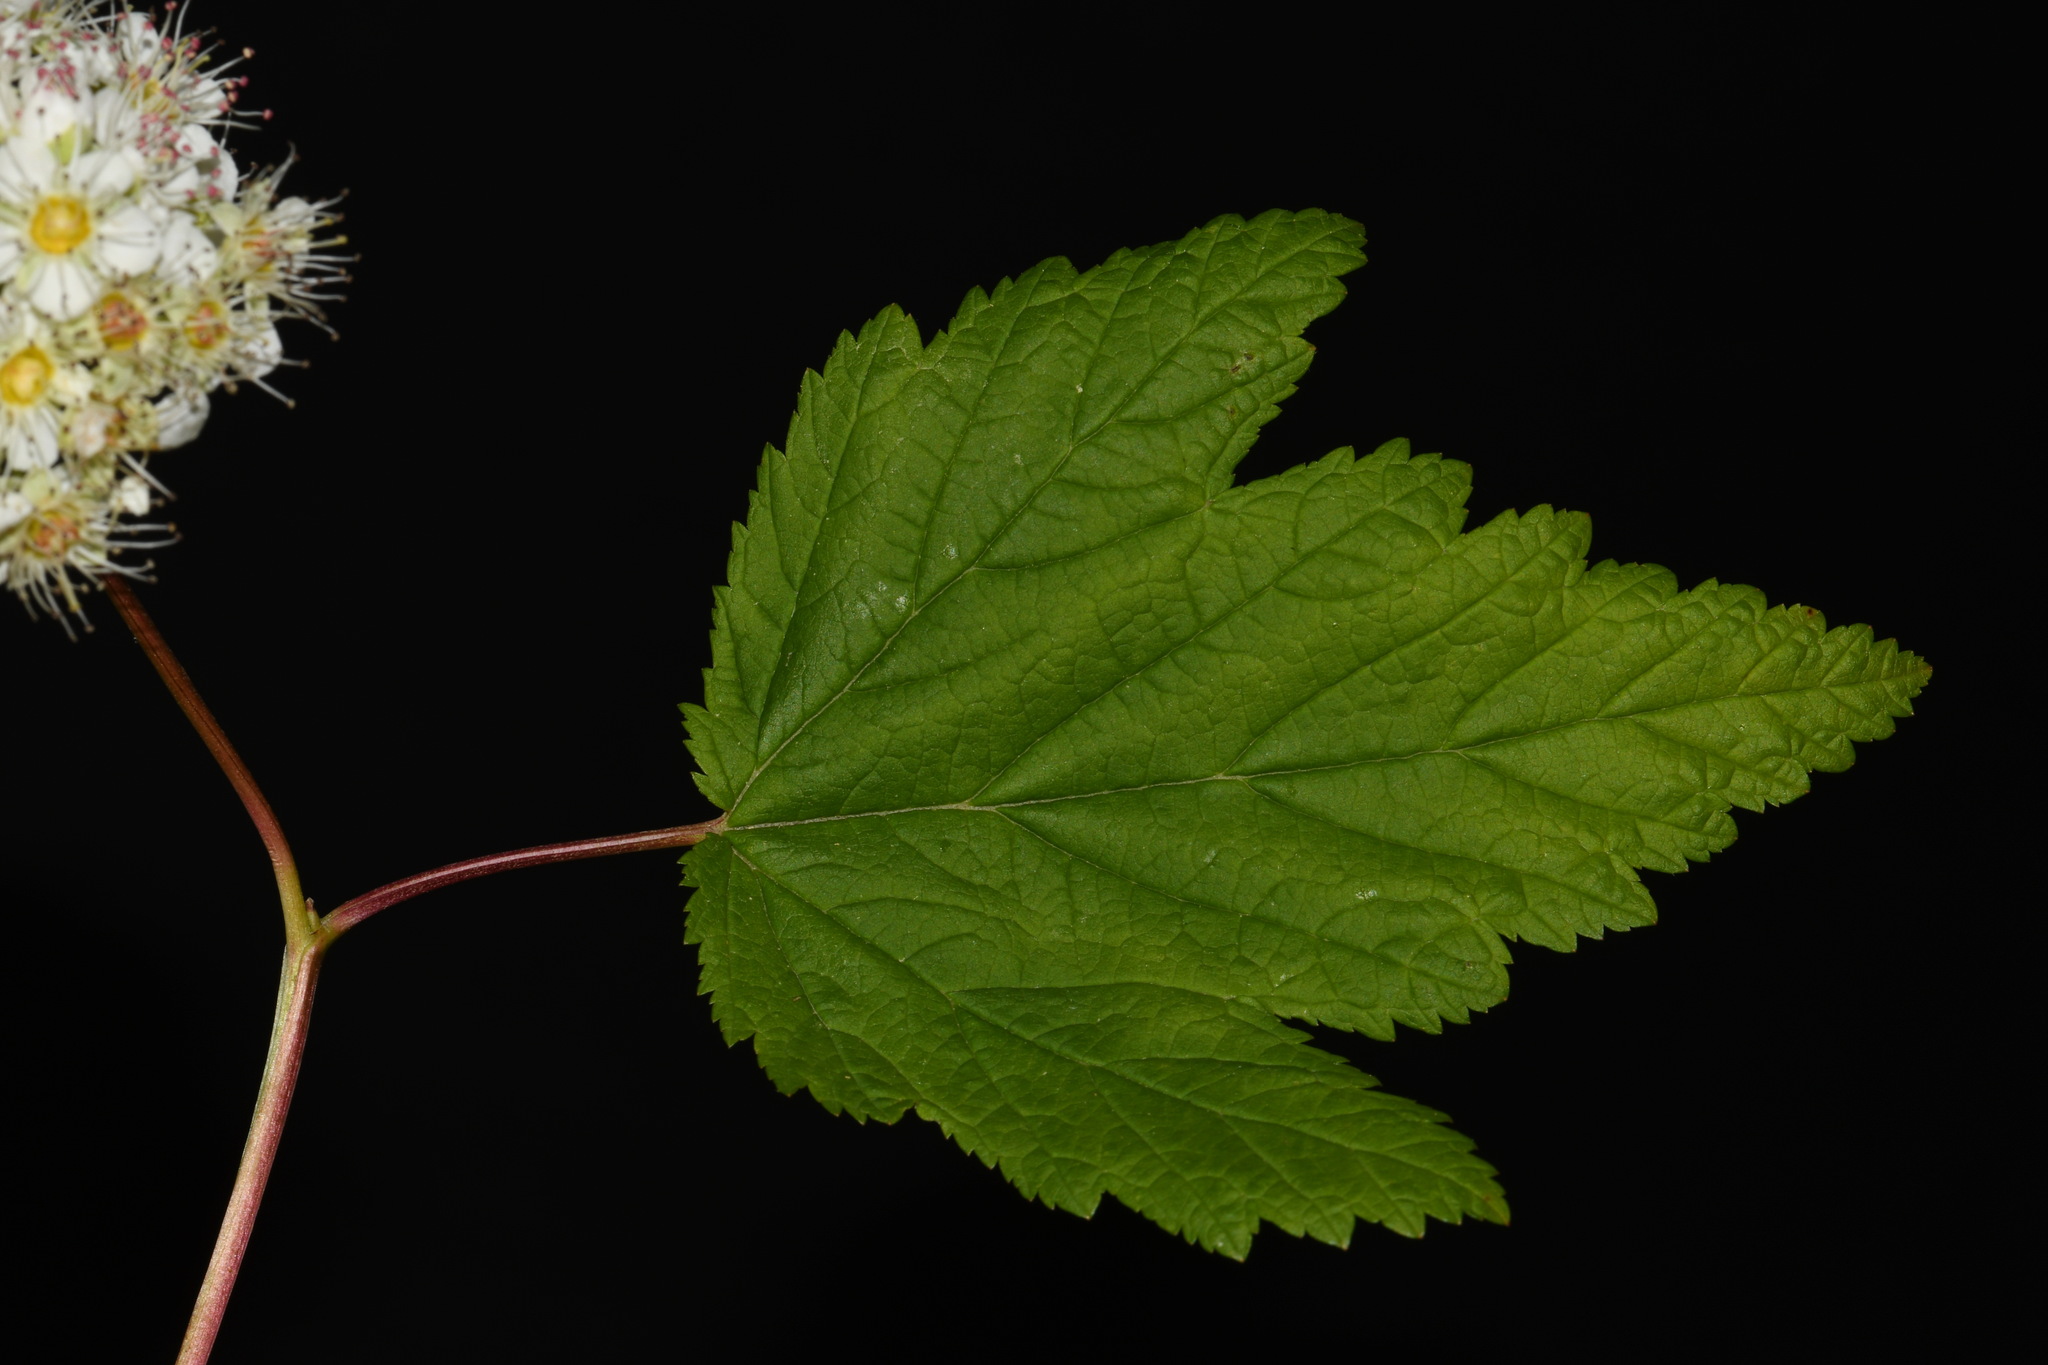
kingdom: Plantae
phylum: Tracheophyta
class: Magnoliopsida
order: Rosales
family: Rosaceae
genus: Physocarpus
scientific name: Physocarpus capitatus
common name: Pacific ninebark
